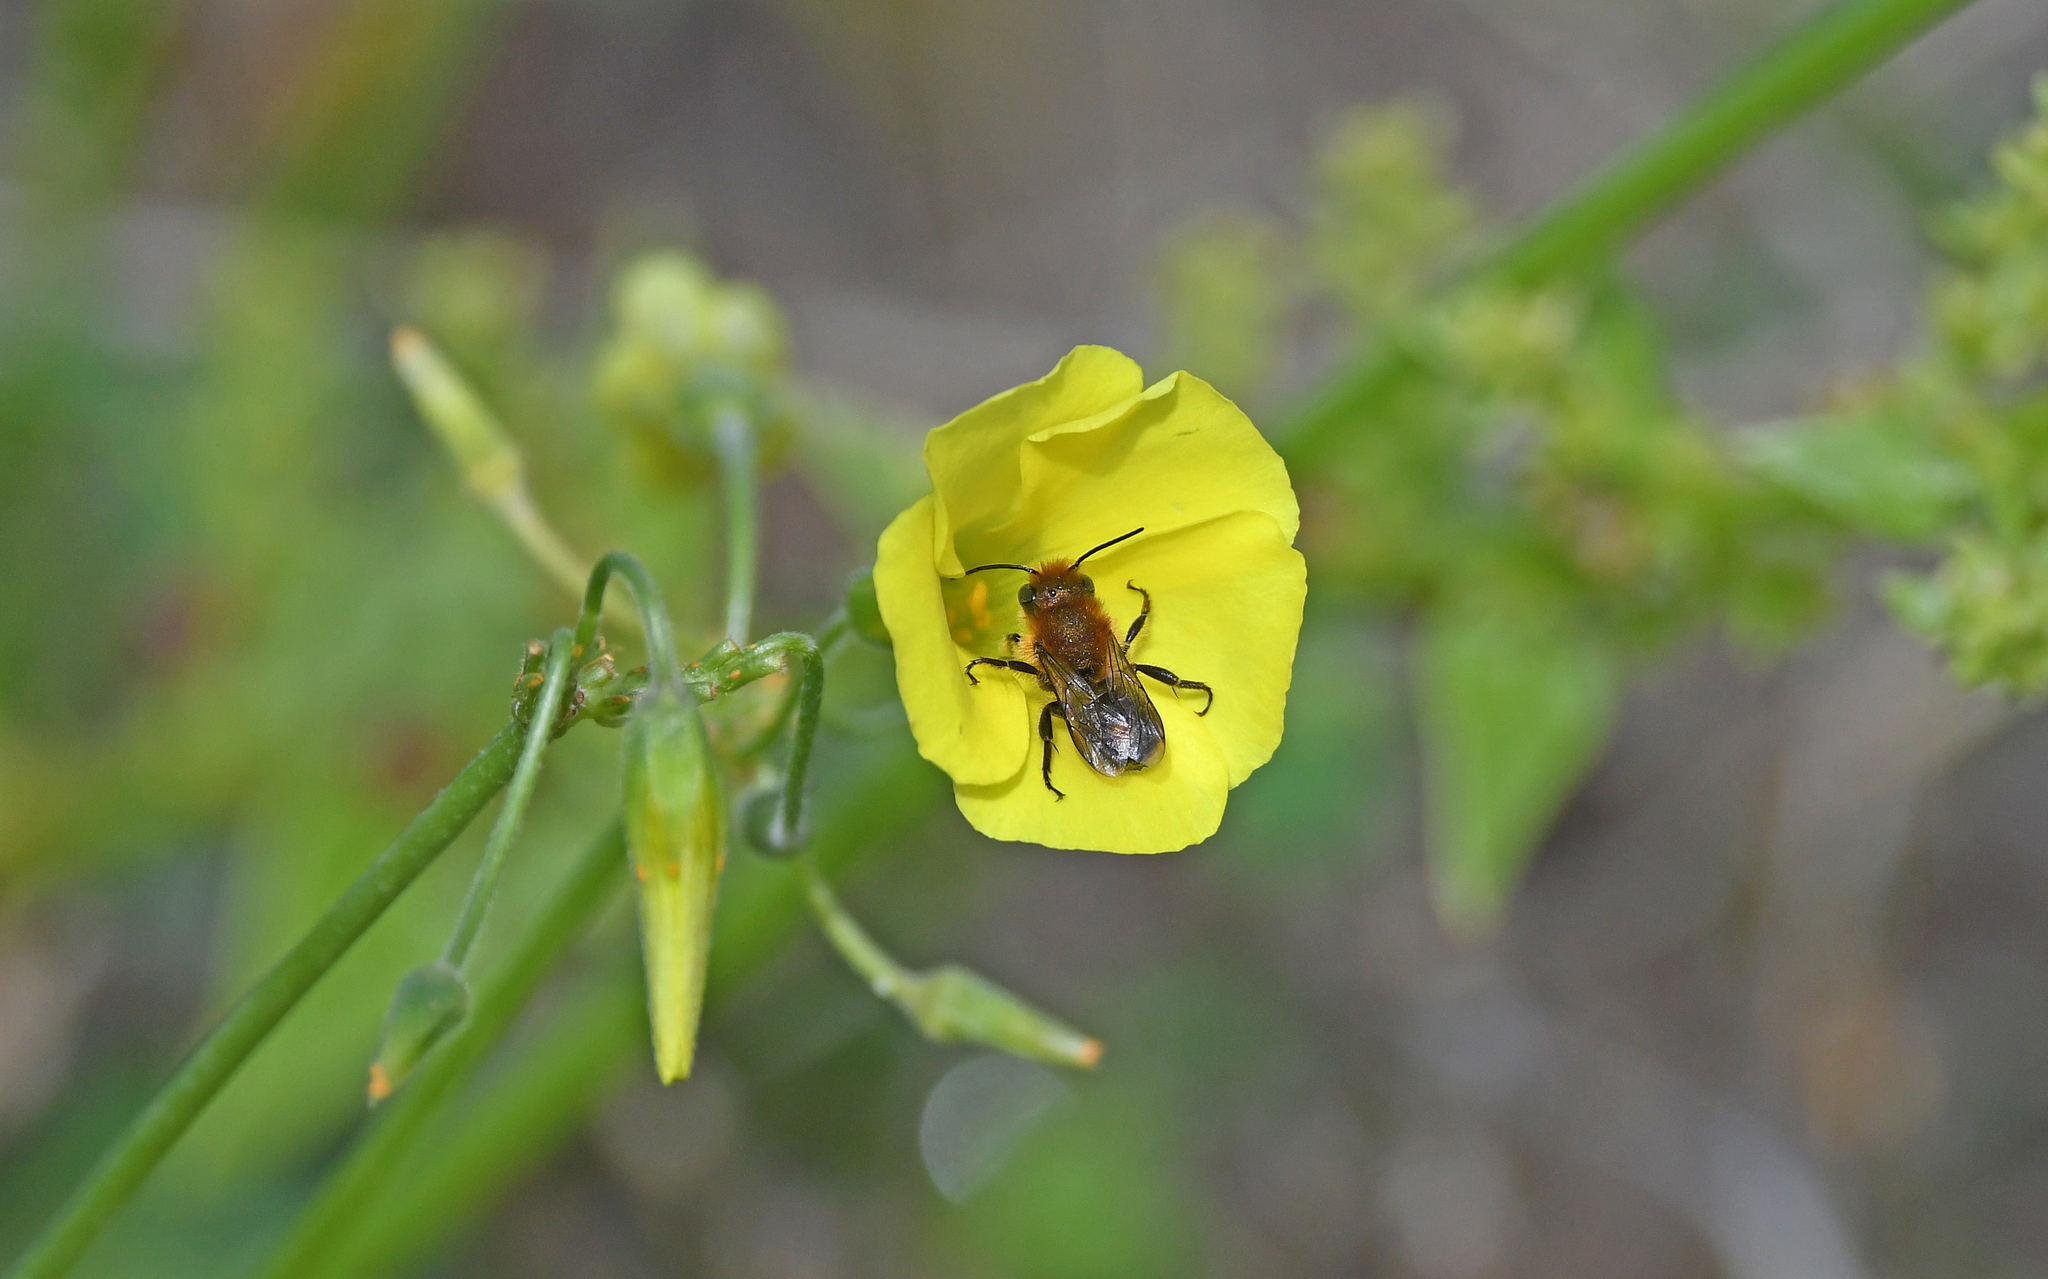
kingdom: Animalia
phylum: Arthropoda
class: Insecta
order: Hymenoptera
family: Megachilidae
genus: Osmia
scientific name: Osmia latreillei
